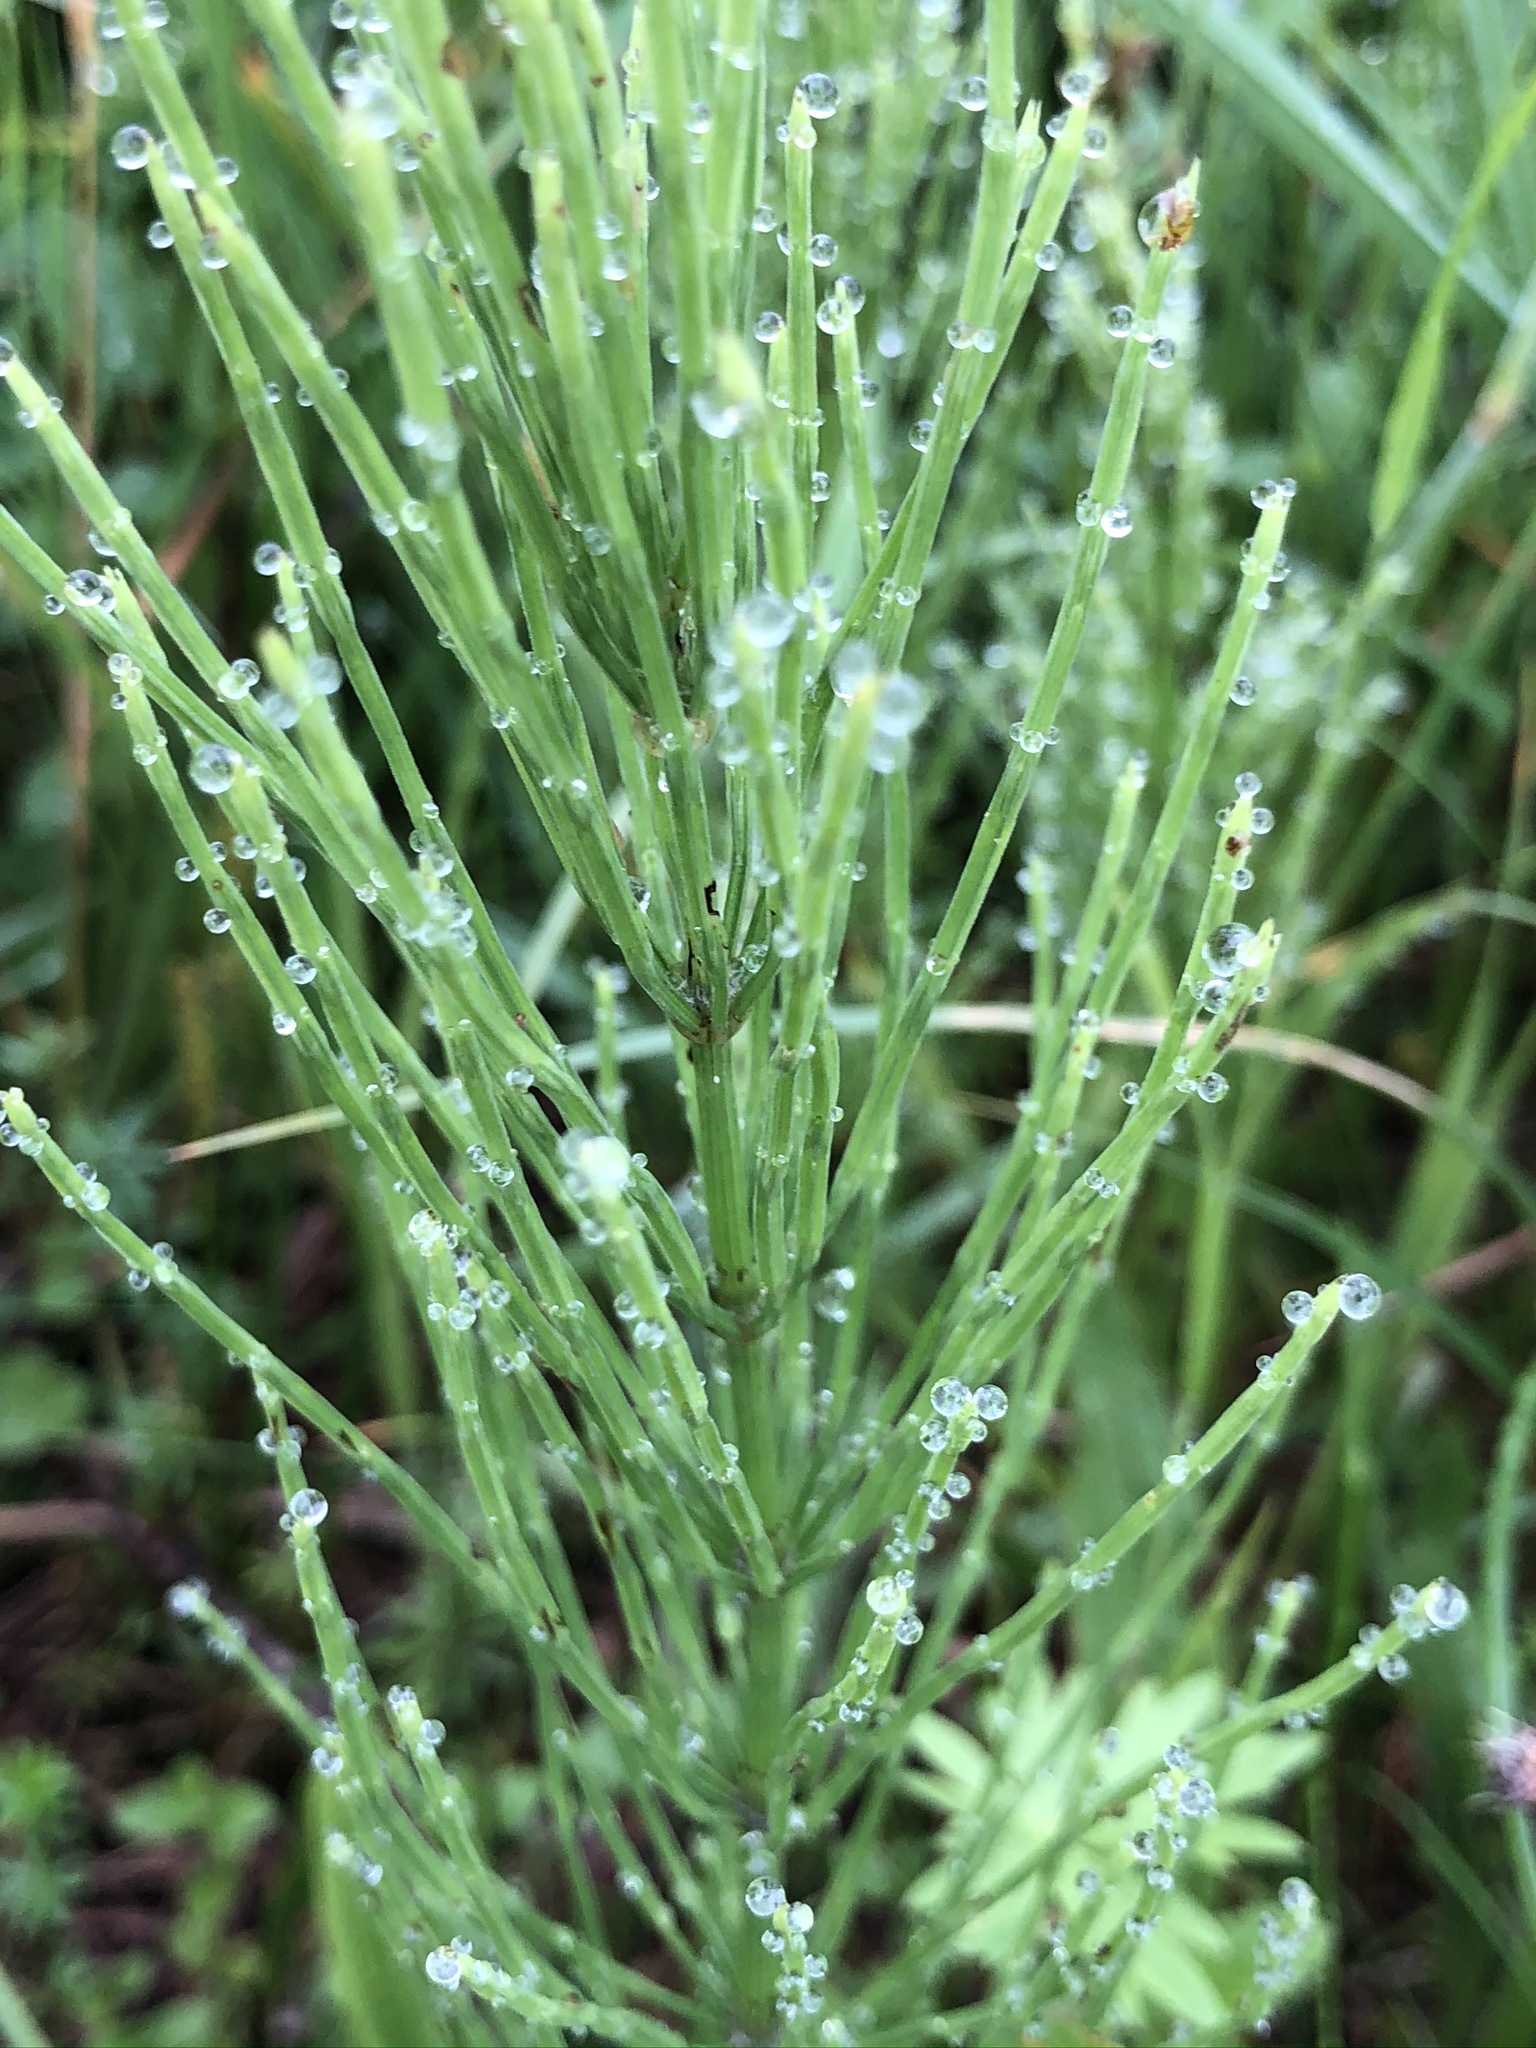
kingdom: Plantae
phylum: Tracheophyta
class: Polypodiopsida
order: Equisetales
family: Equisetaceae
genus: Equisetum
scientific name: Equisetum arvense
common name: Field horsetail
